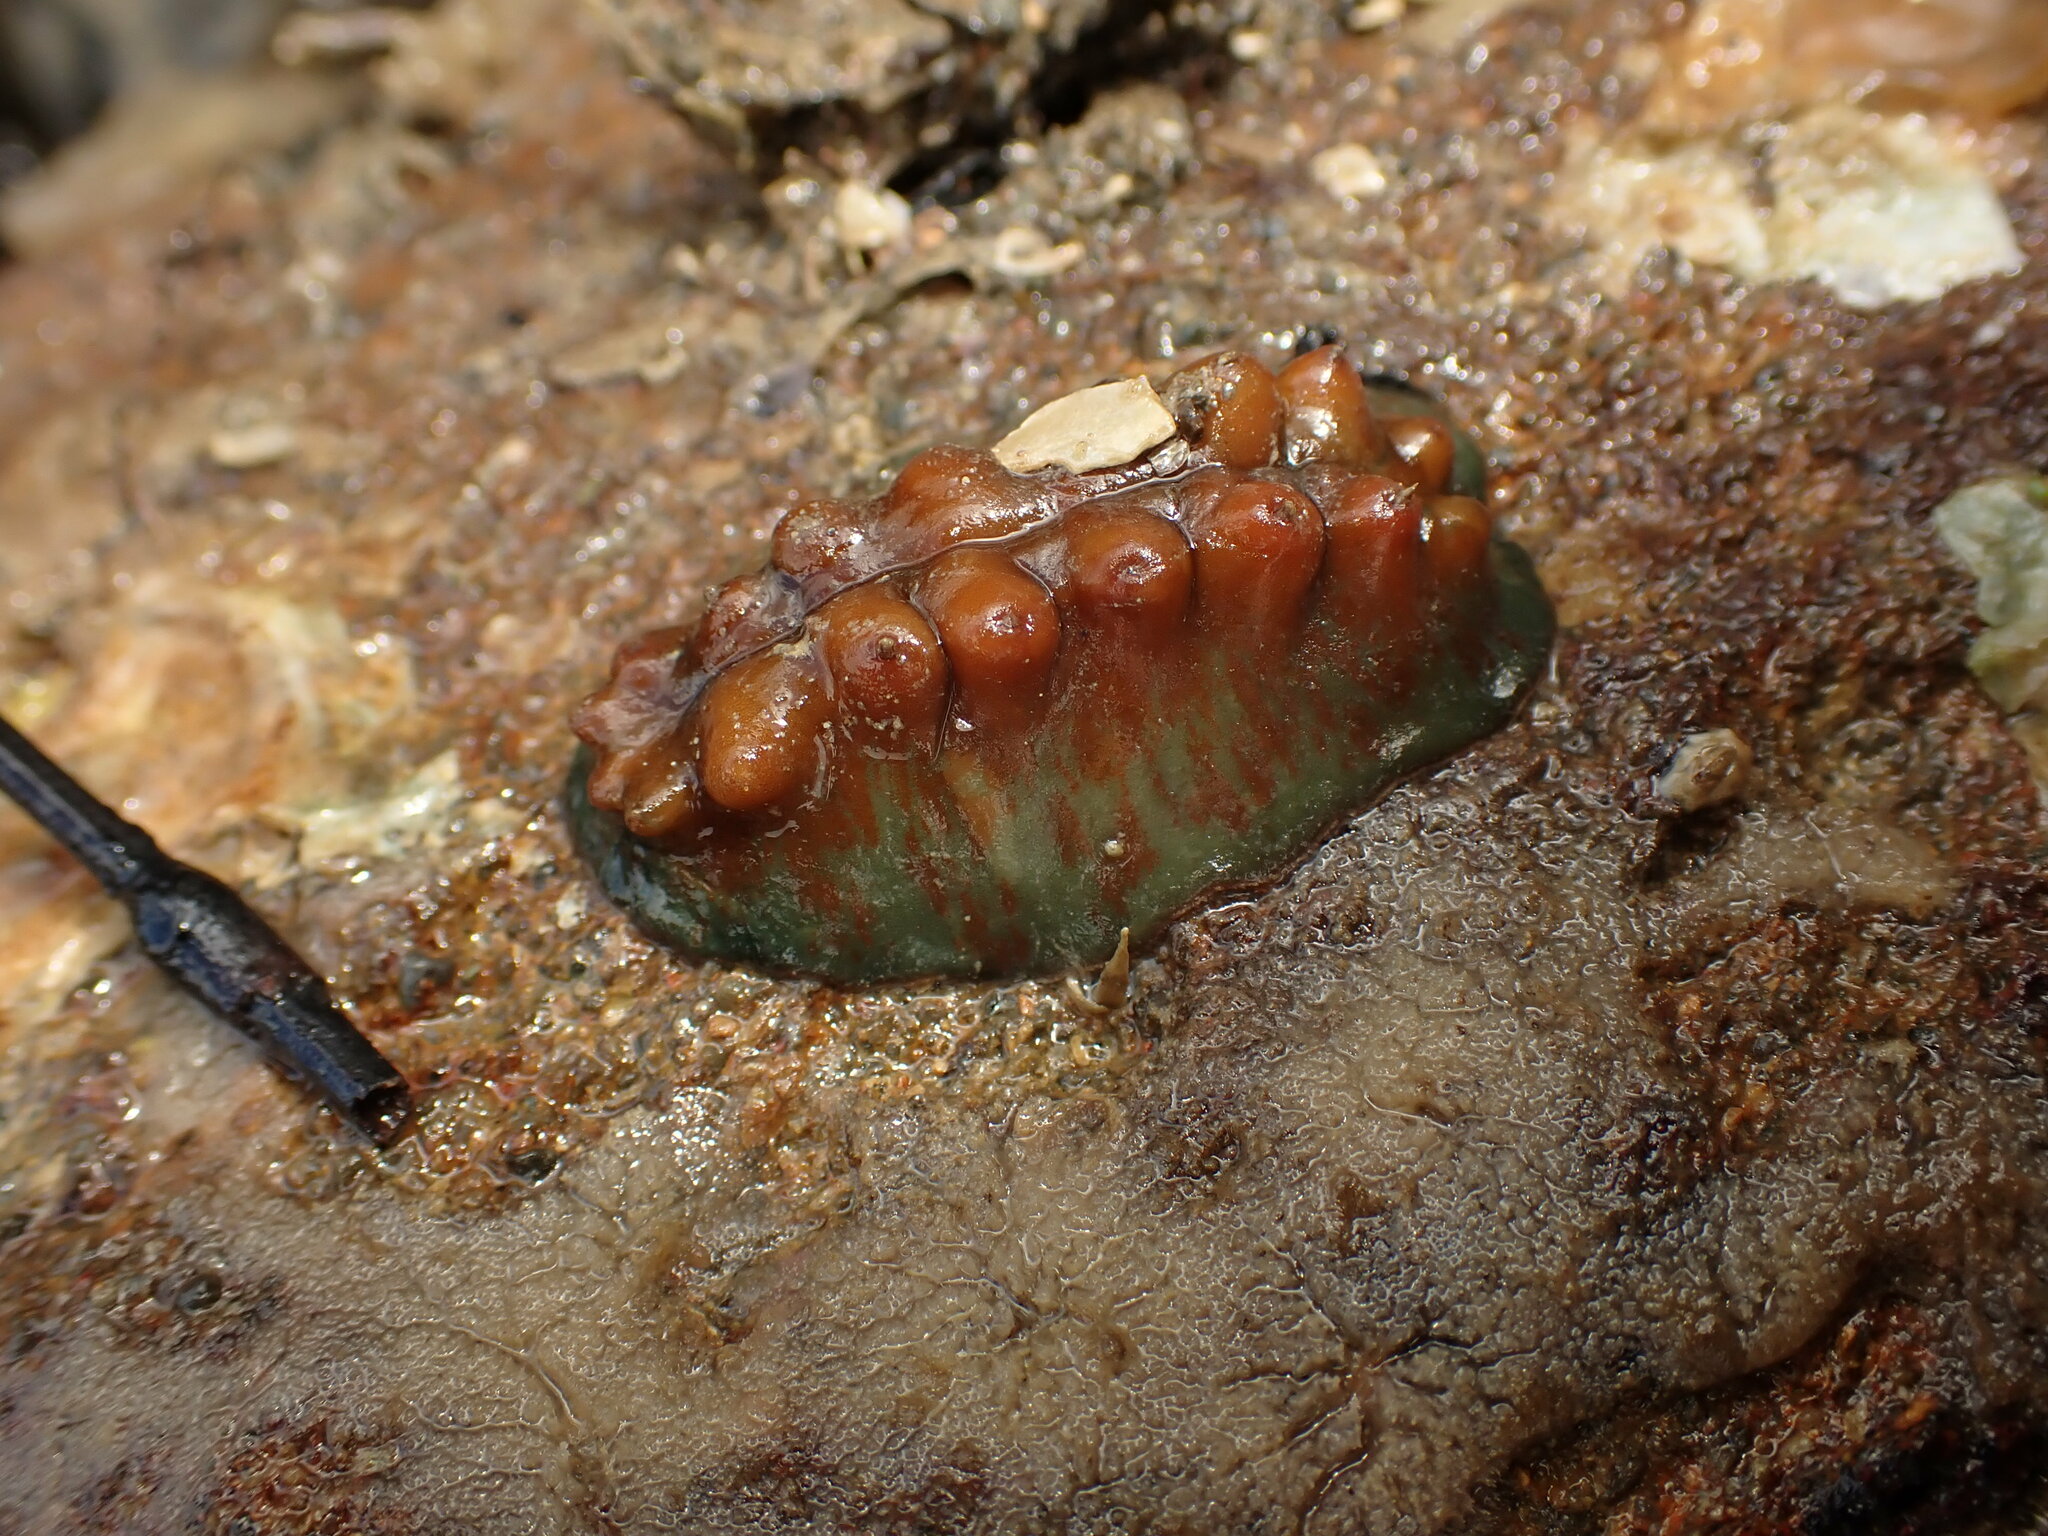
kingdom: Animalia
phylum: Mollusca
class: Polyplacophora
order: Chitonida
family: Acanthochitonidae
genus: Cryptoconchus
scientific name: Cryptoconchus porosus
